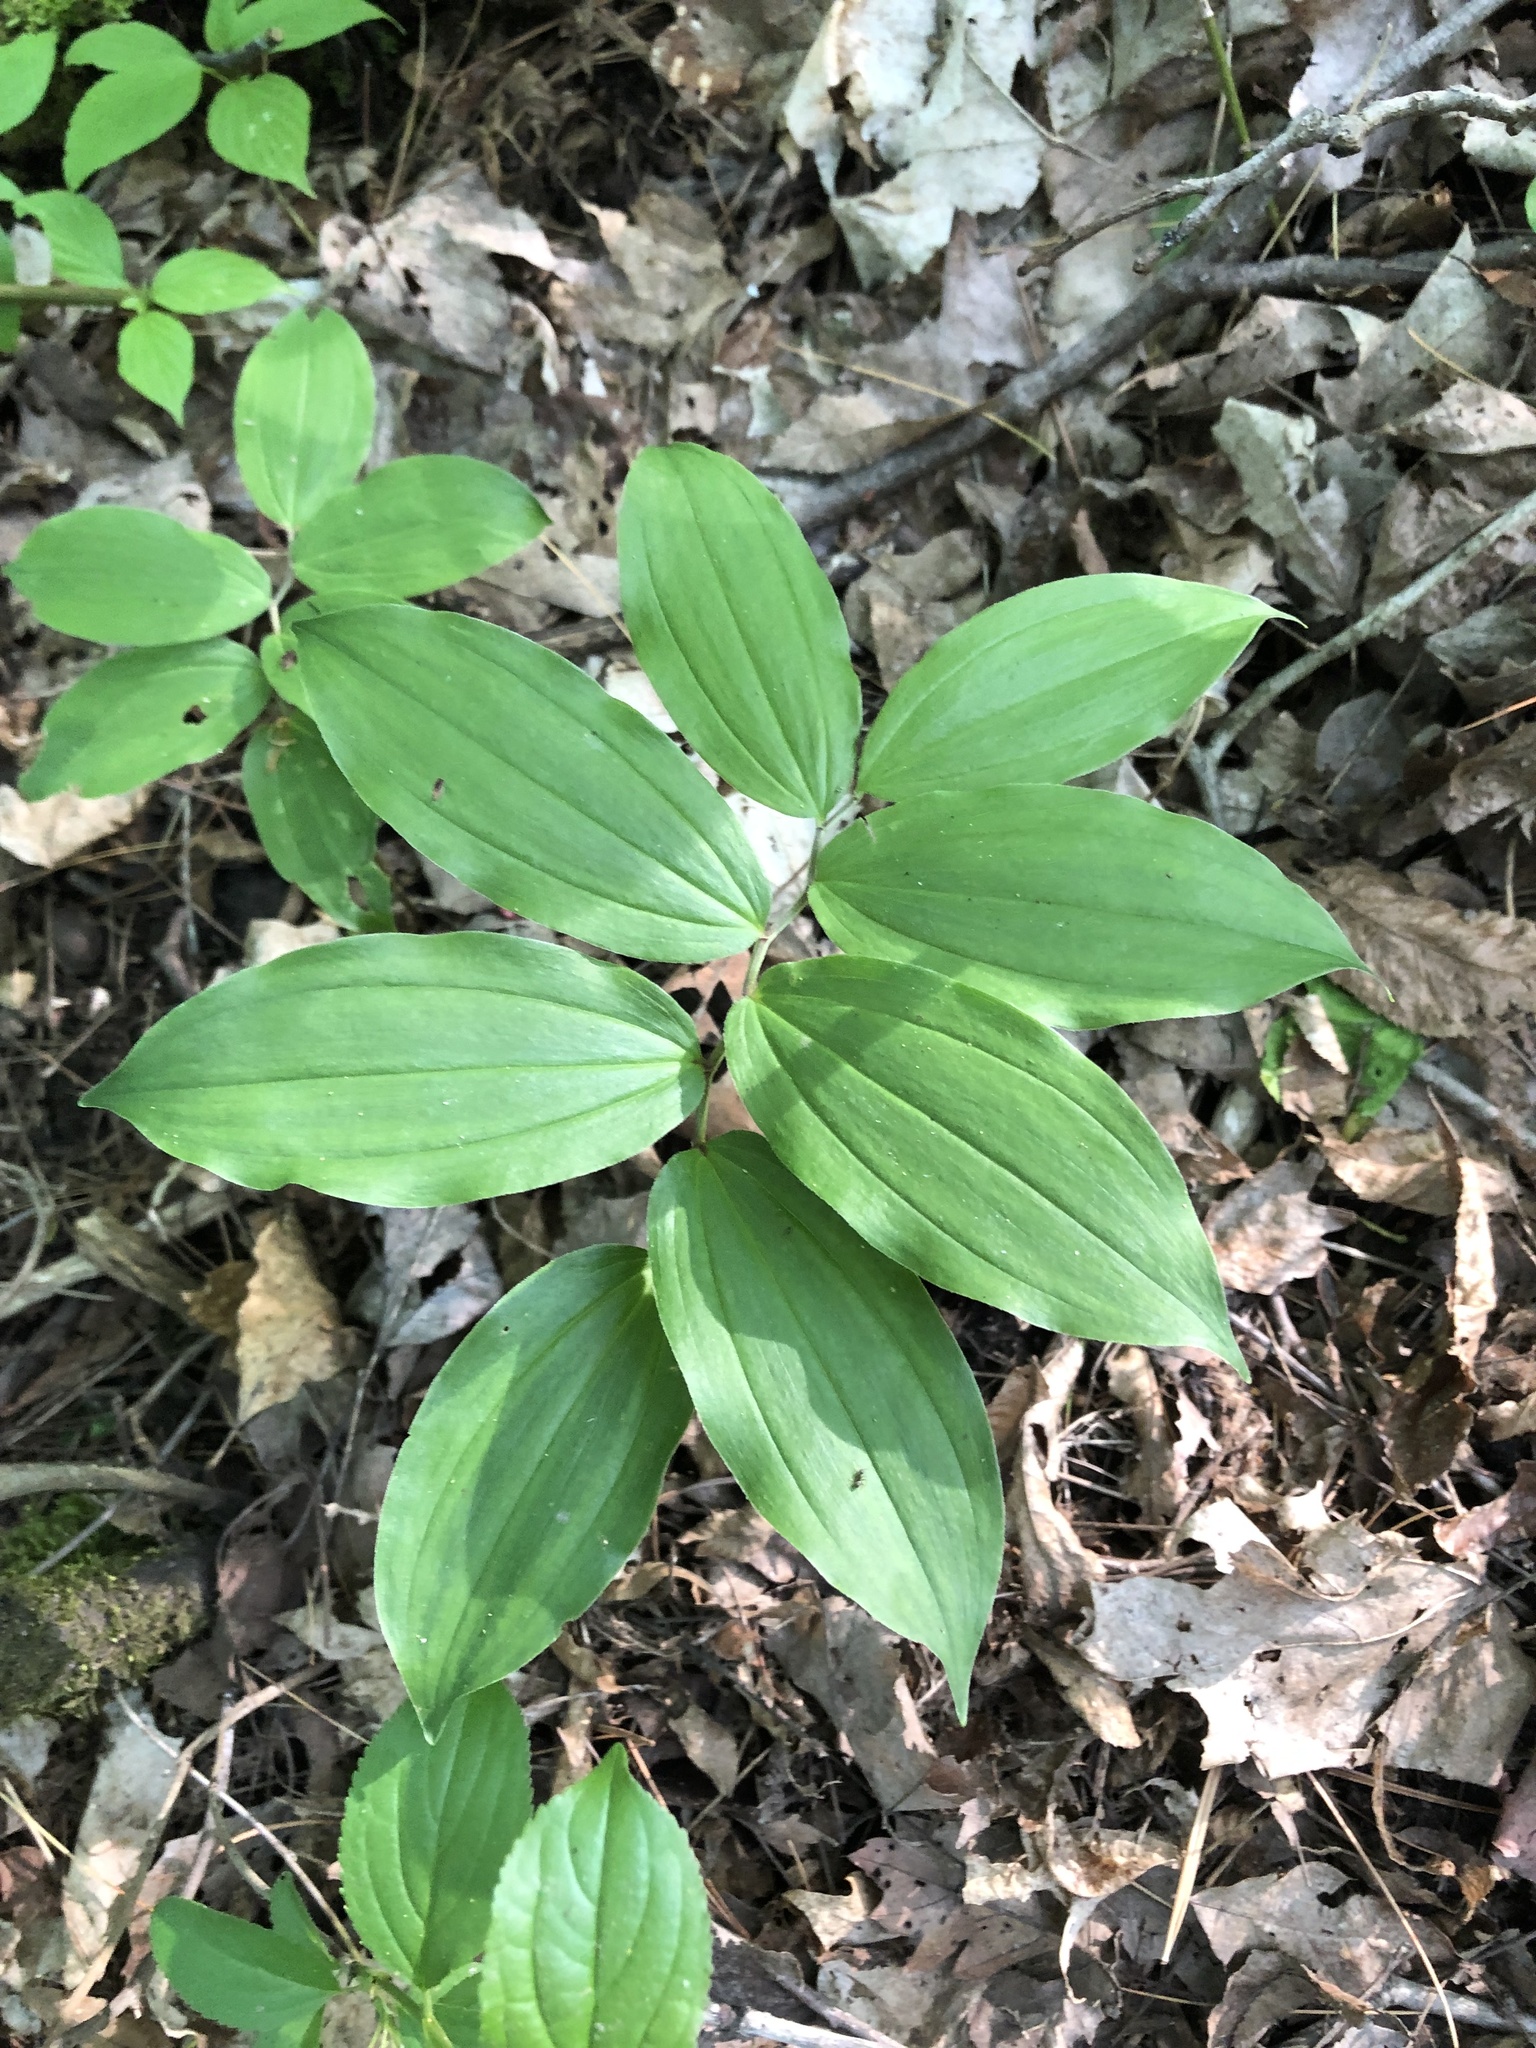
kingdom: Plantae
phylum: Tracheophyta
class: Liliopsida
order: Asparagales
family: Asparagaceae
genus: Maianthemum
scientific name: Maianthemum racemosum
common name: False spikenard
